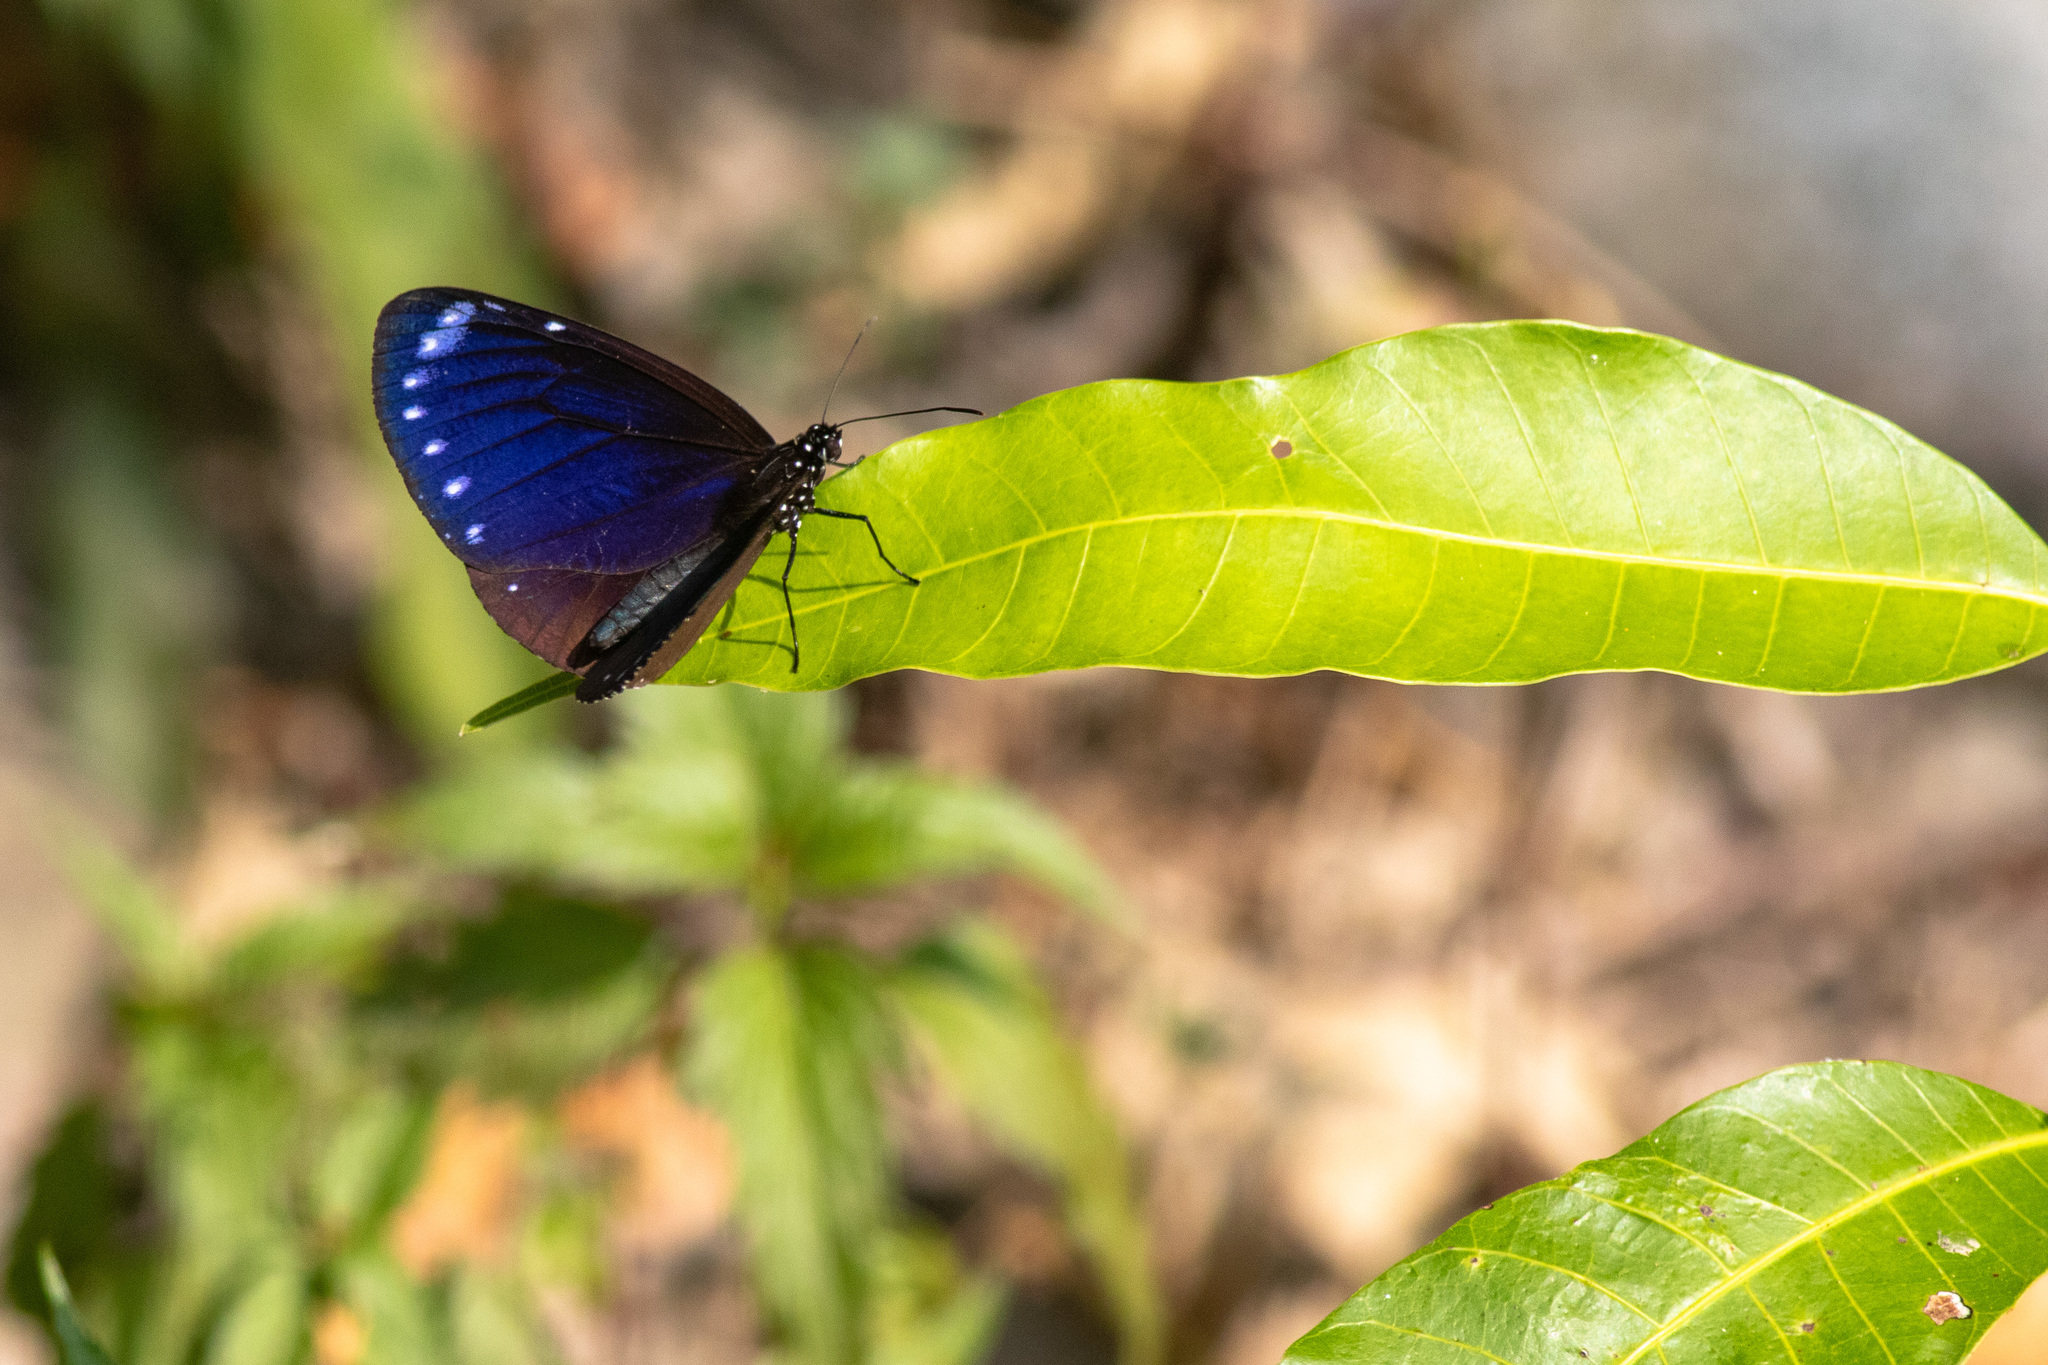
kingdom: Animalia
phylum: Arthropoda
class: Insecta
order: Lepidoptera
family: Nymphalidae
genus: Euploea
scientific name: Euploea tulliolus
